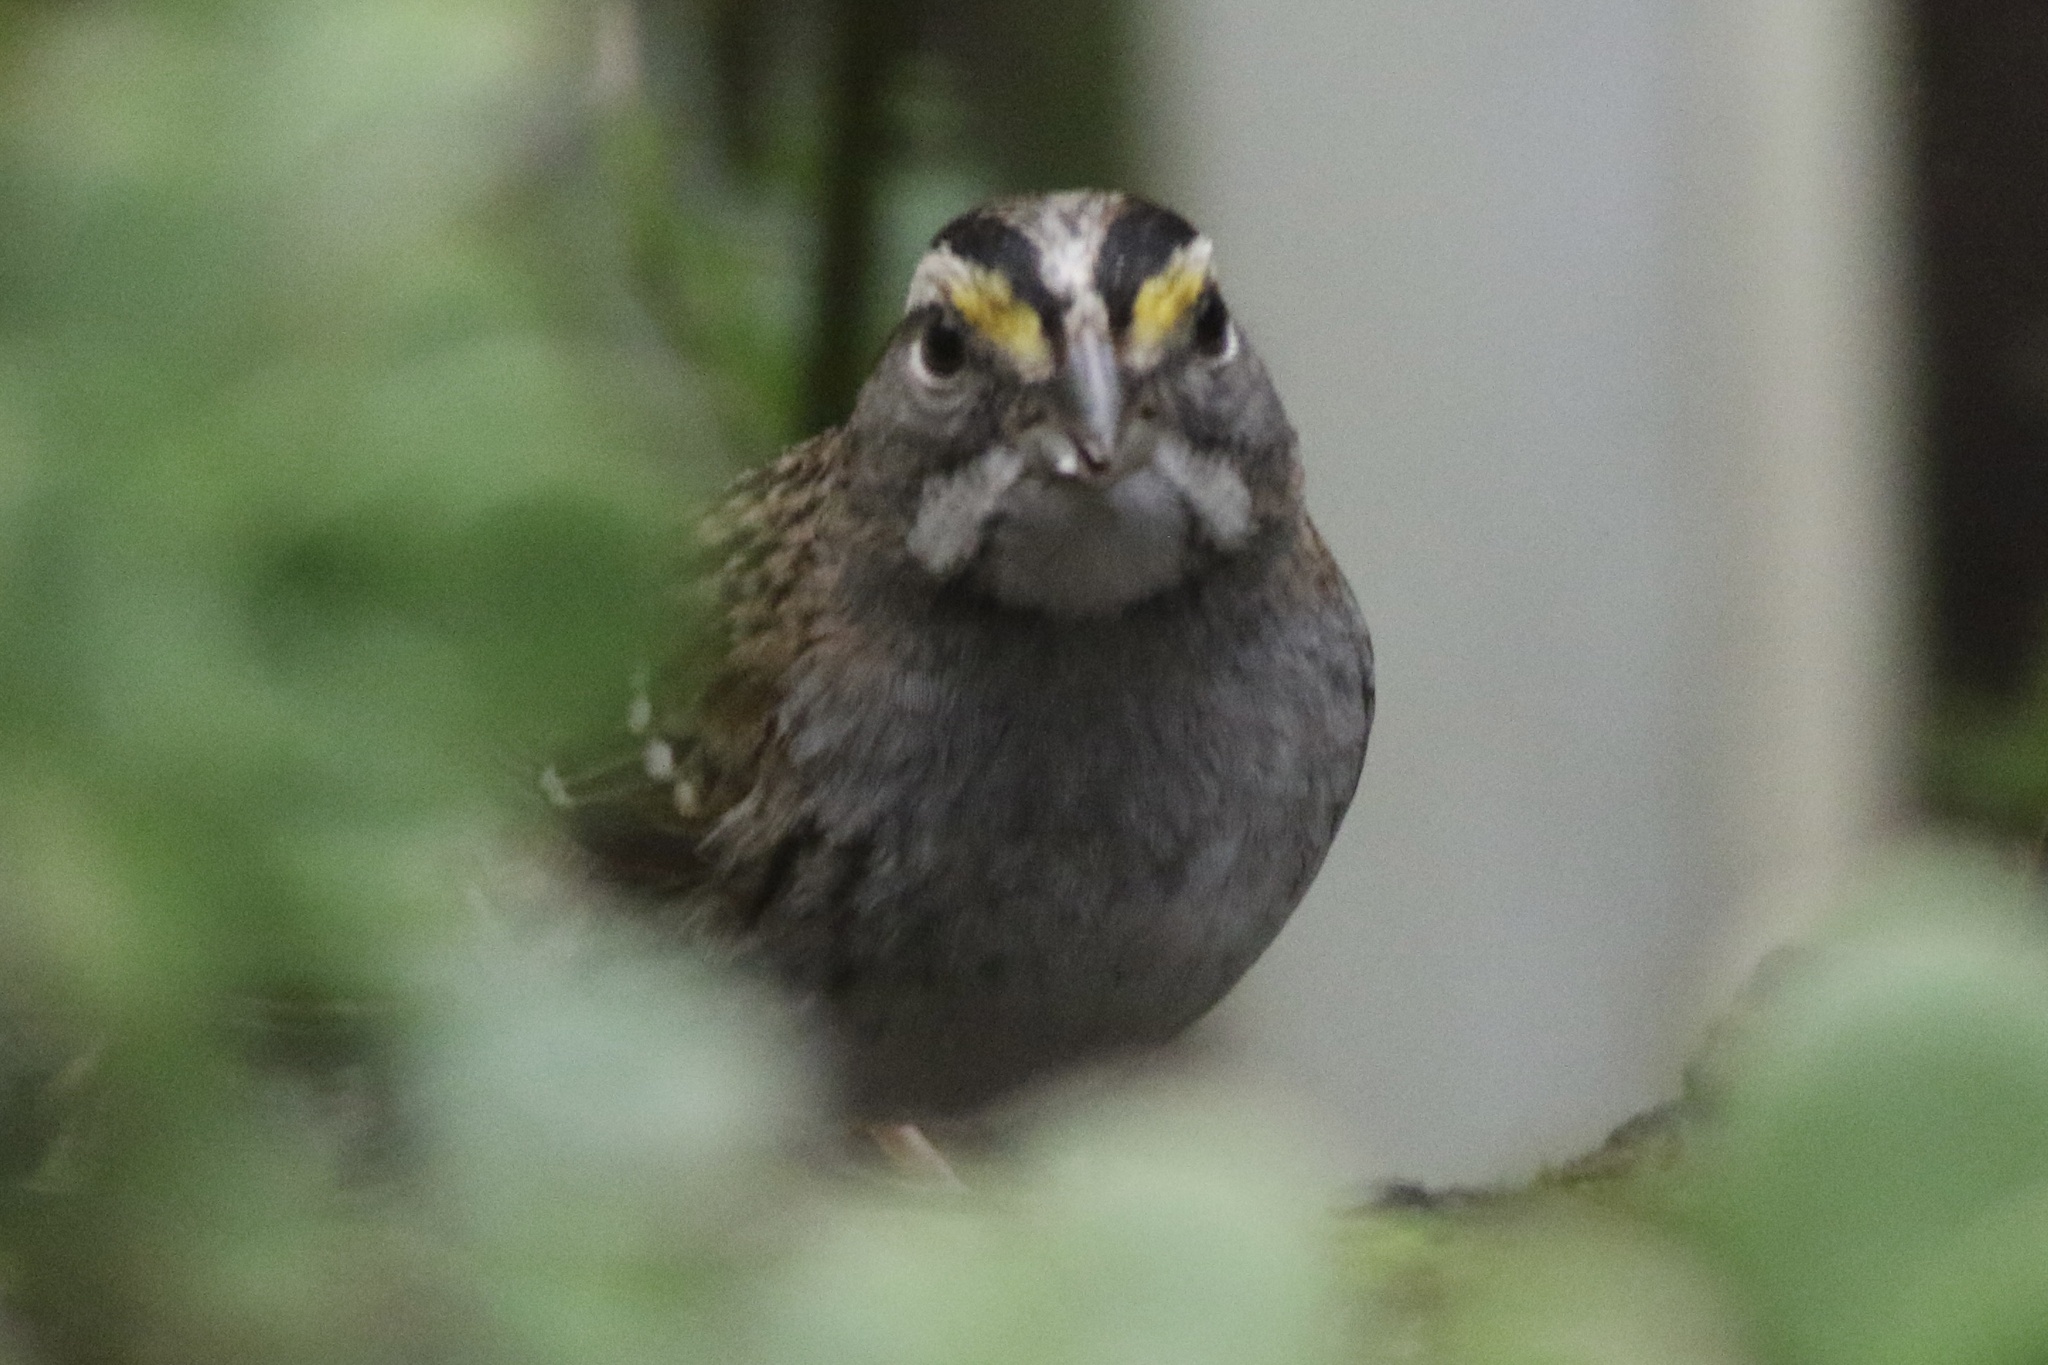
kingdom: Animalia
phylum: Chordata
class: Aves
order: Passeriformes
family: Passerellidae
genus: Zonotrichia
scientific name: Zonotrichia albicollis
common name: White-throated sparrow
